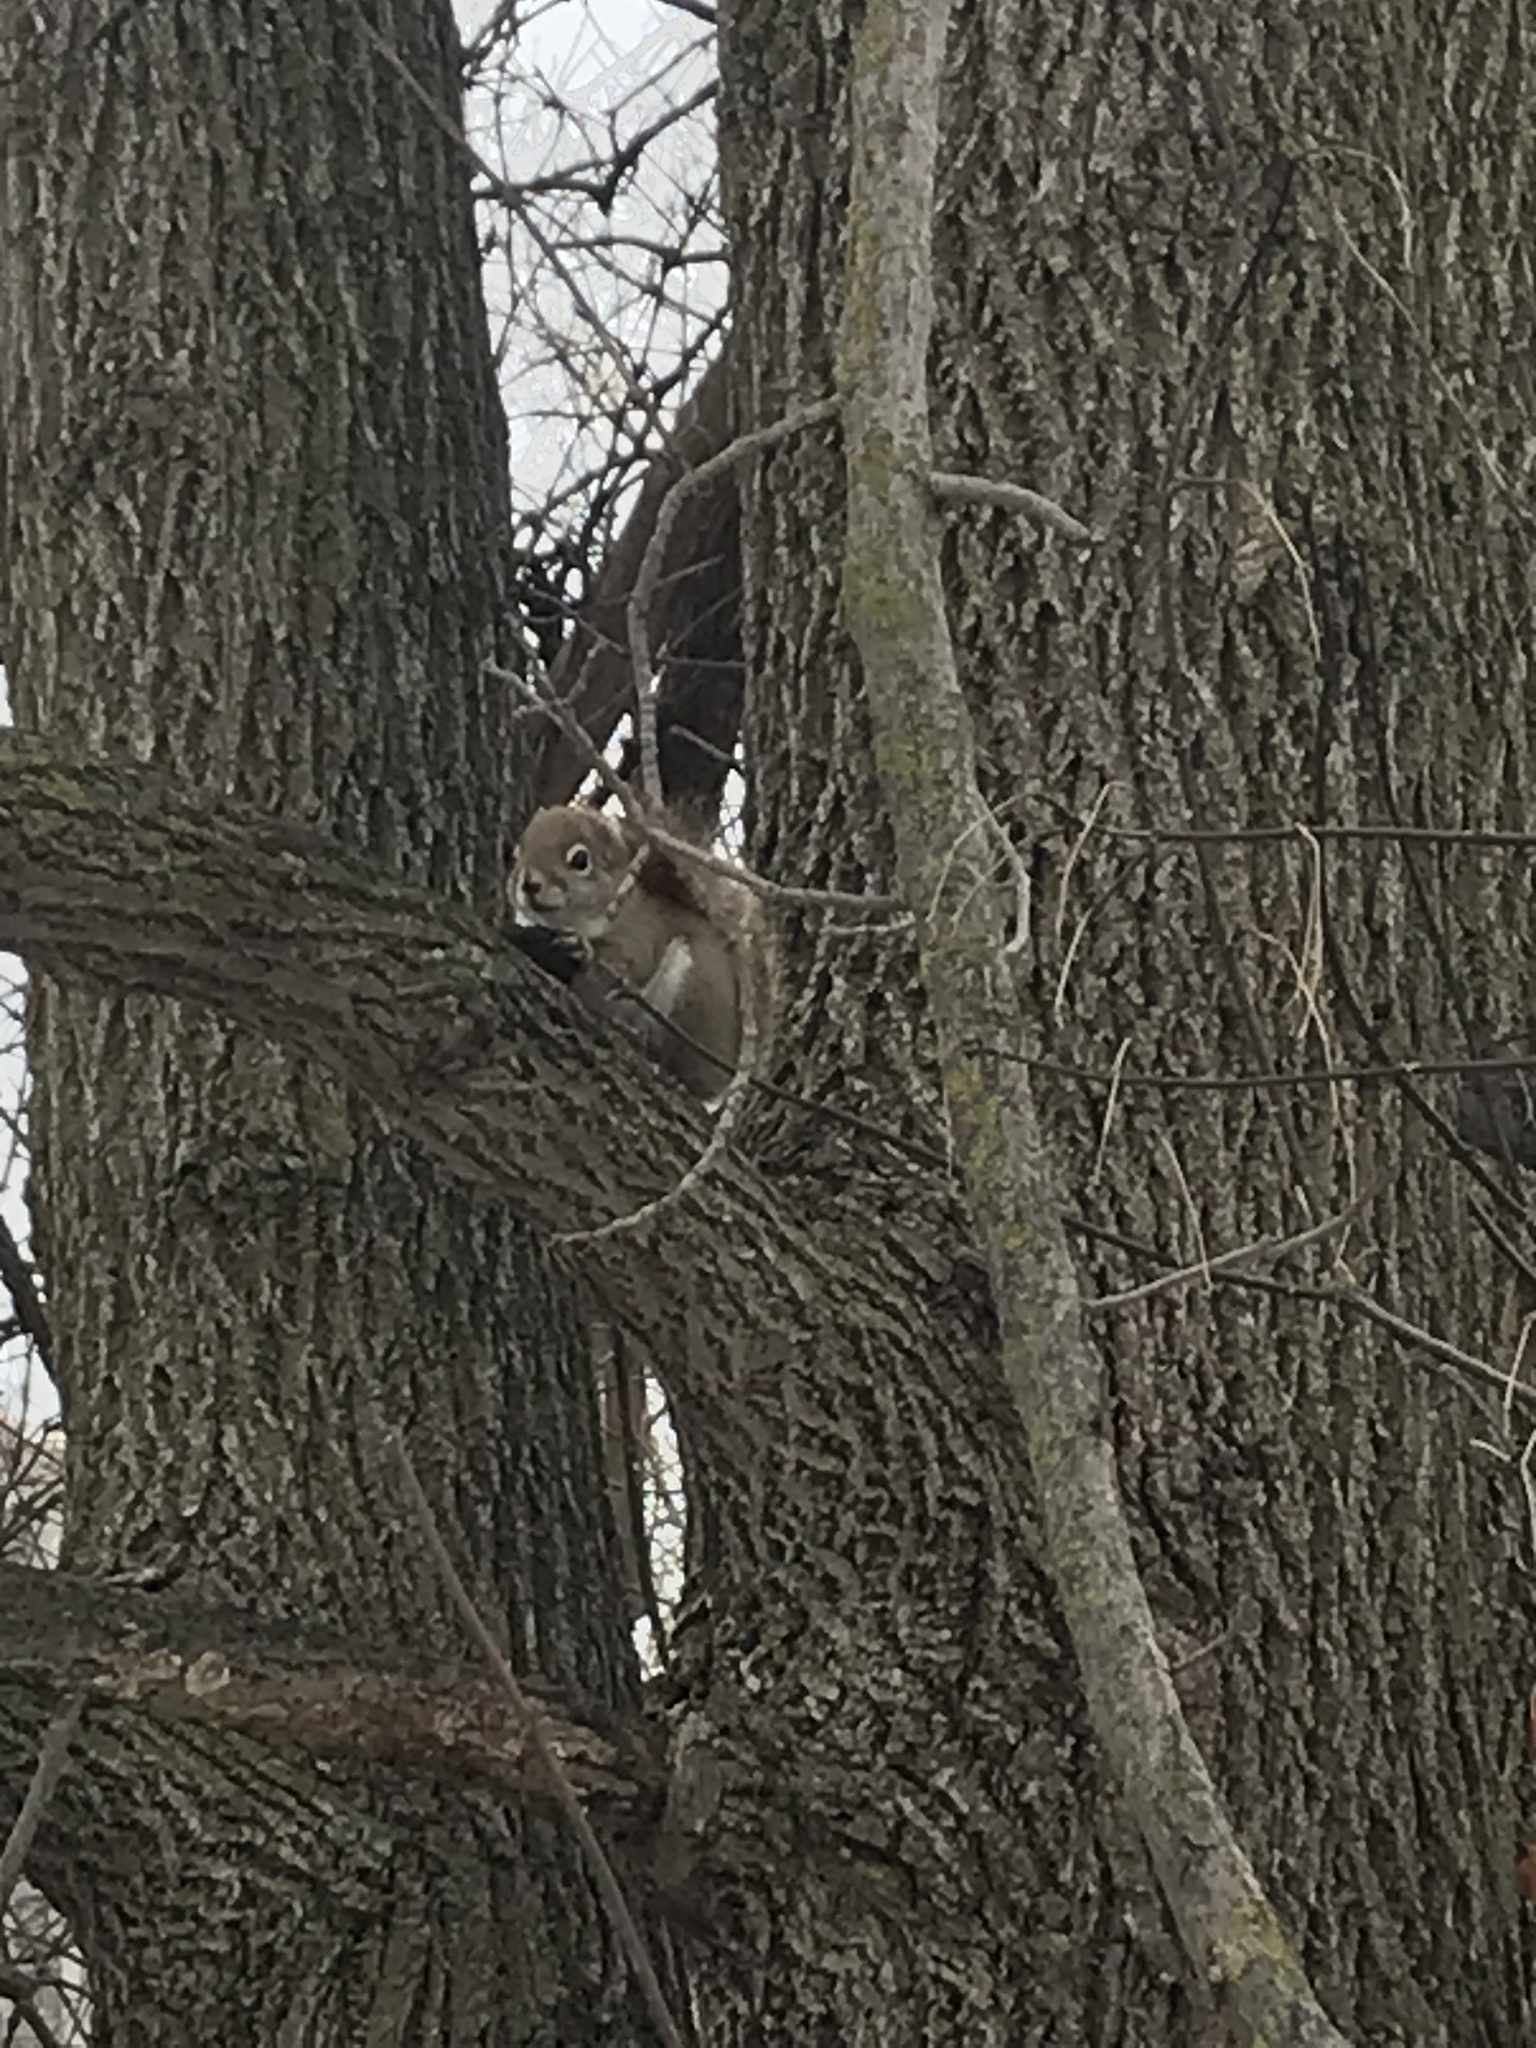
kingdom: Animalia
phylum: Chordata
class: Mammalia
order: Rodentia
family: Sciuridae
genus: Tamiasciurus
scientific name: Tamiasciurus hudsonicus
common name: Red squirrel
